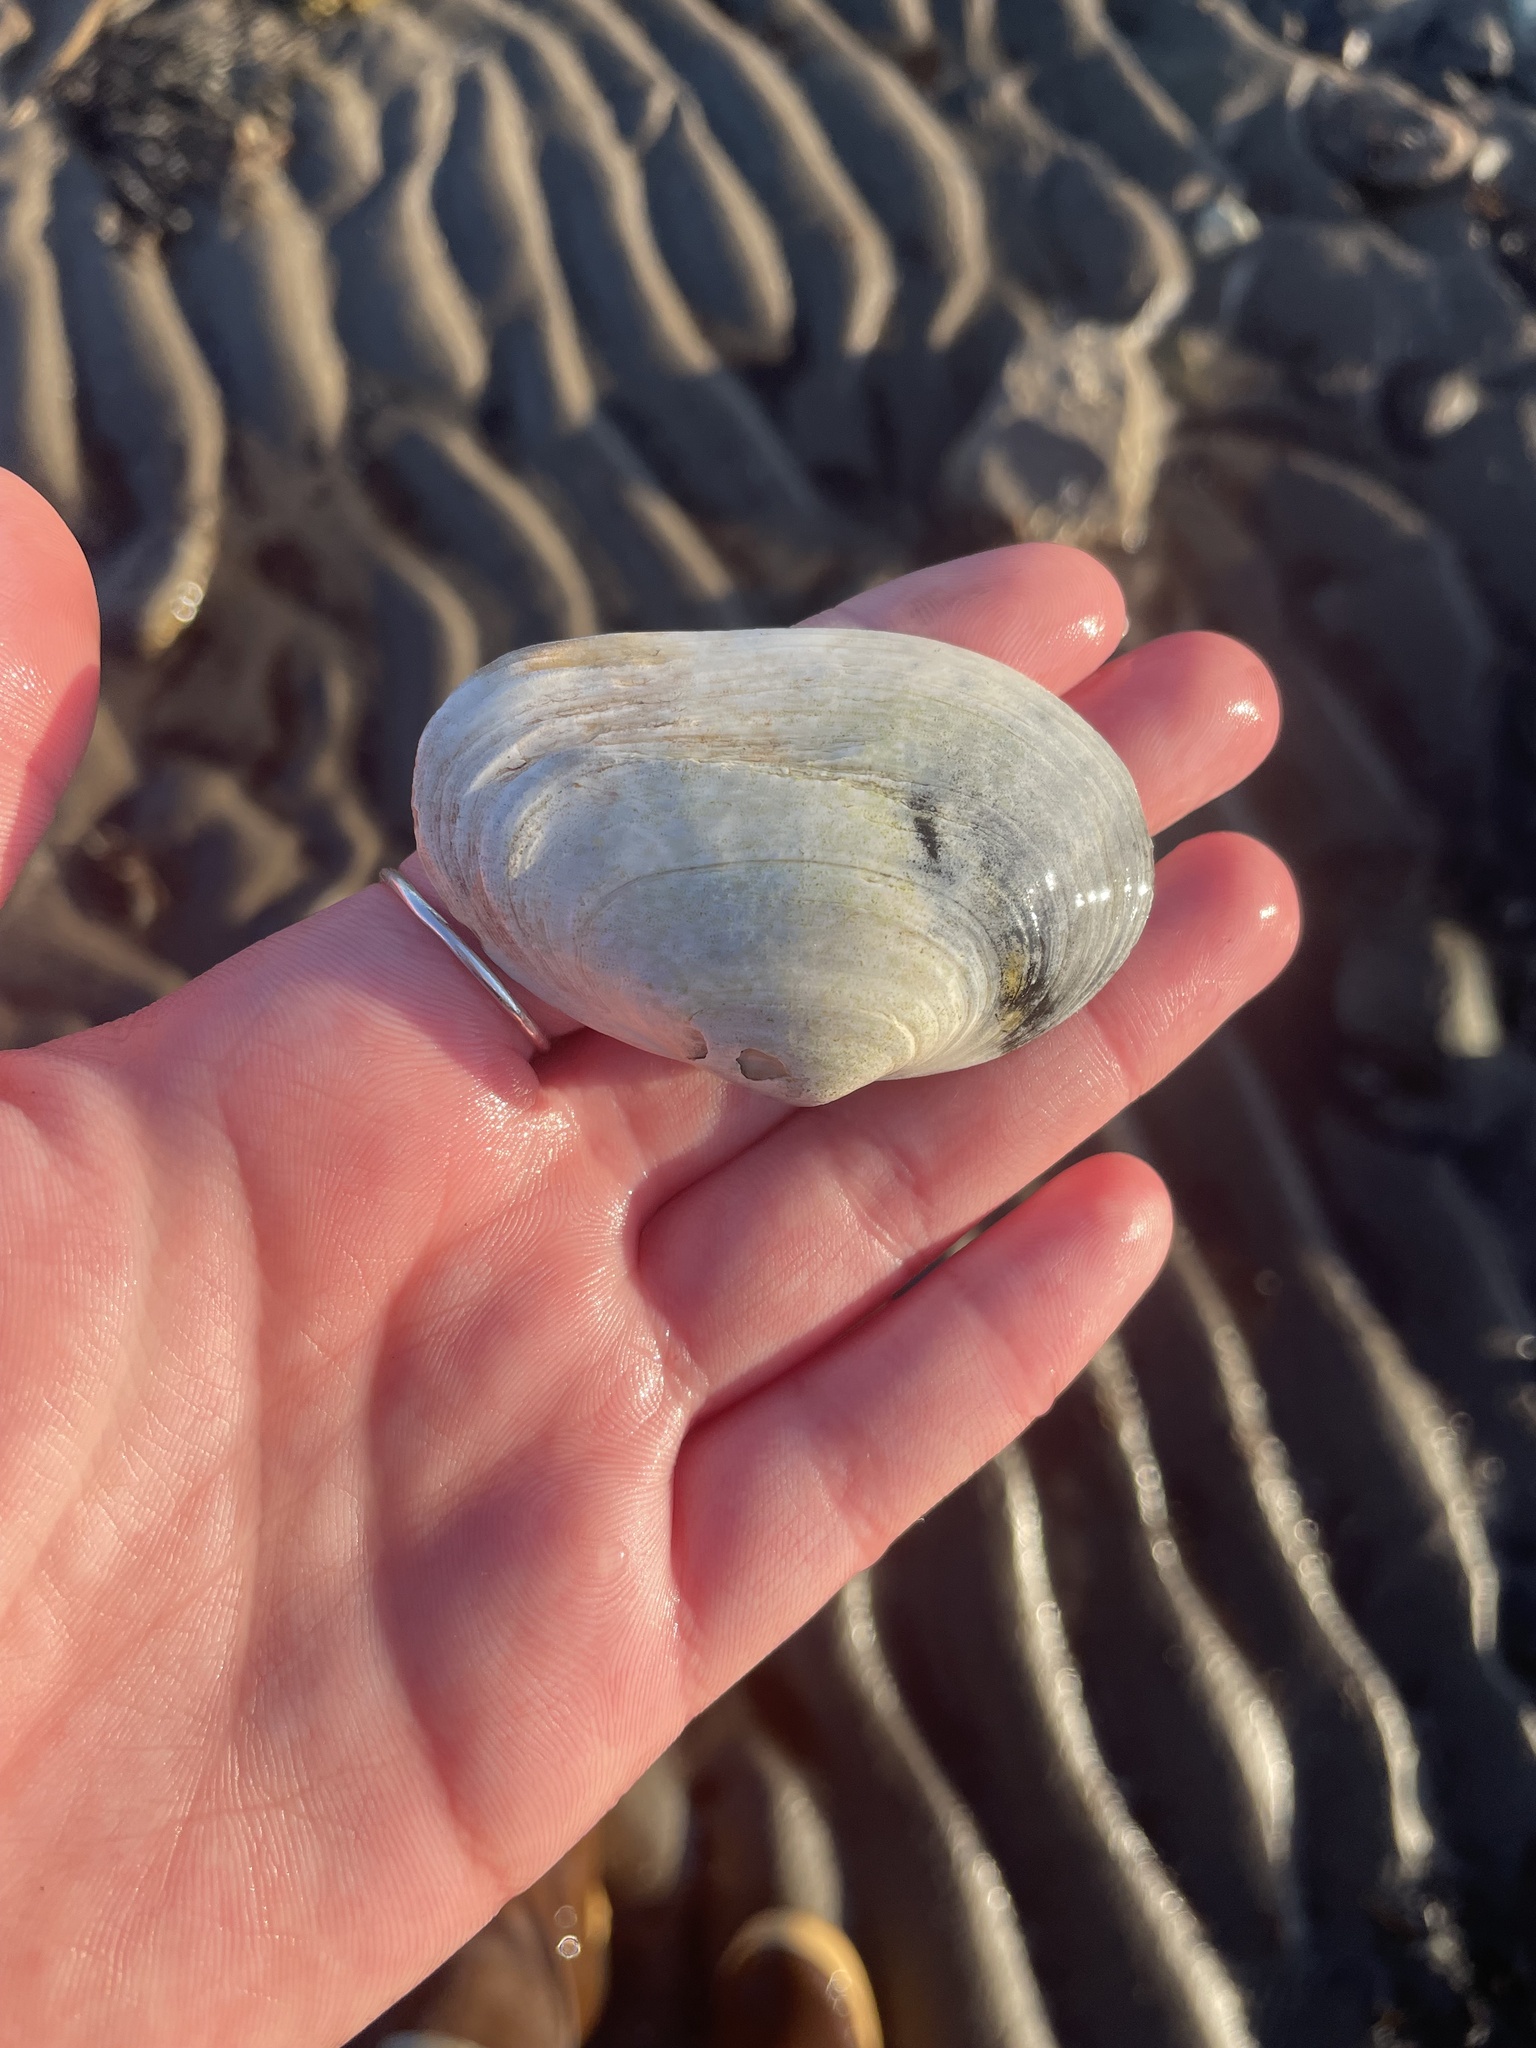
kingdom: Animalia
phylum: Mollusca
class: Bivalvia
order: Myida
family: Myidae
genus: Mya
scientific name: Mya arenaria
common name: Soft-shelled clam
